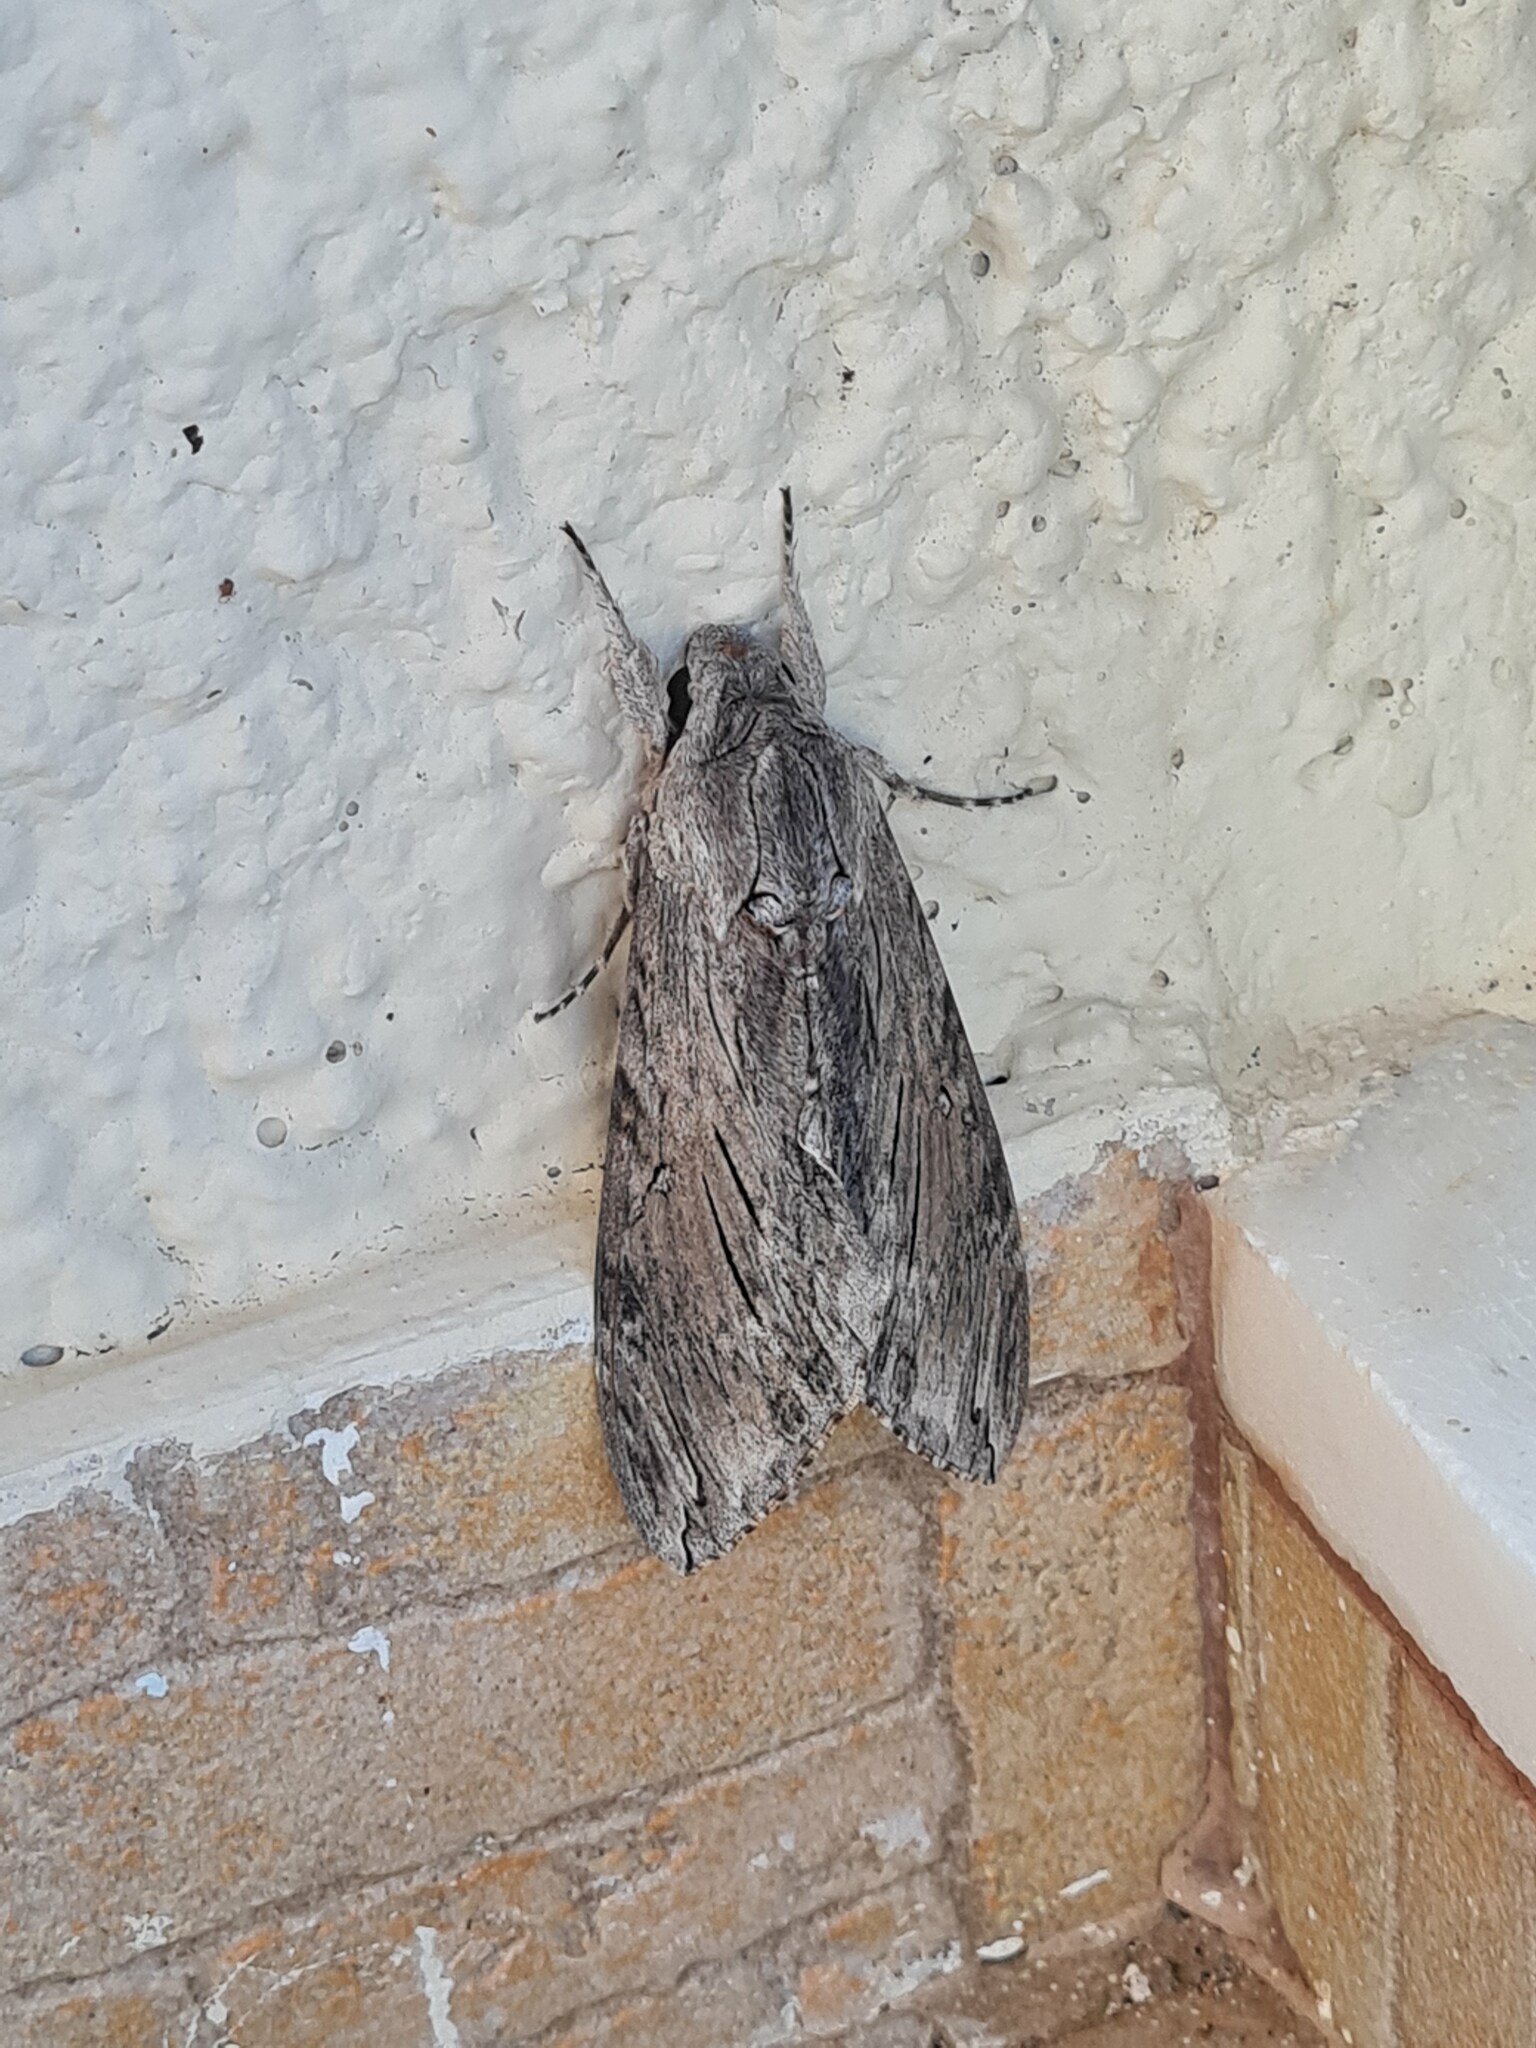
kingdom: Animalia
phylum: Arthropoda
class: Insecta
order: Lepidoptera
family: Sphingidae
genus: Agrius
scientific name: Agrius convolvuli
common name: Convolvulus hawkmoth
